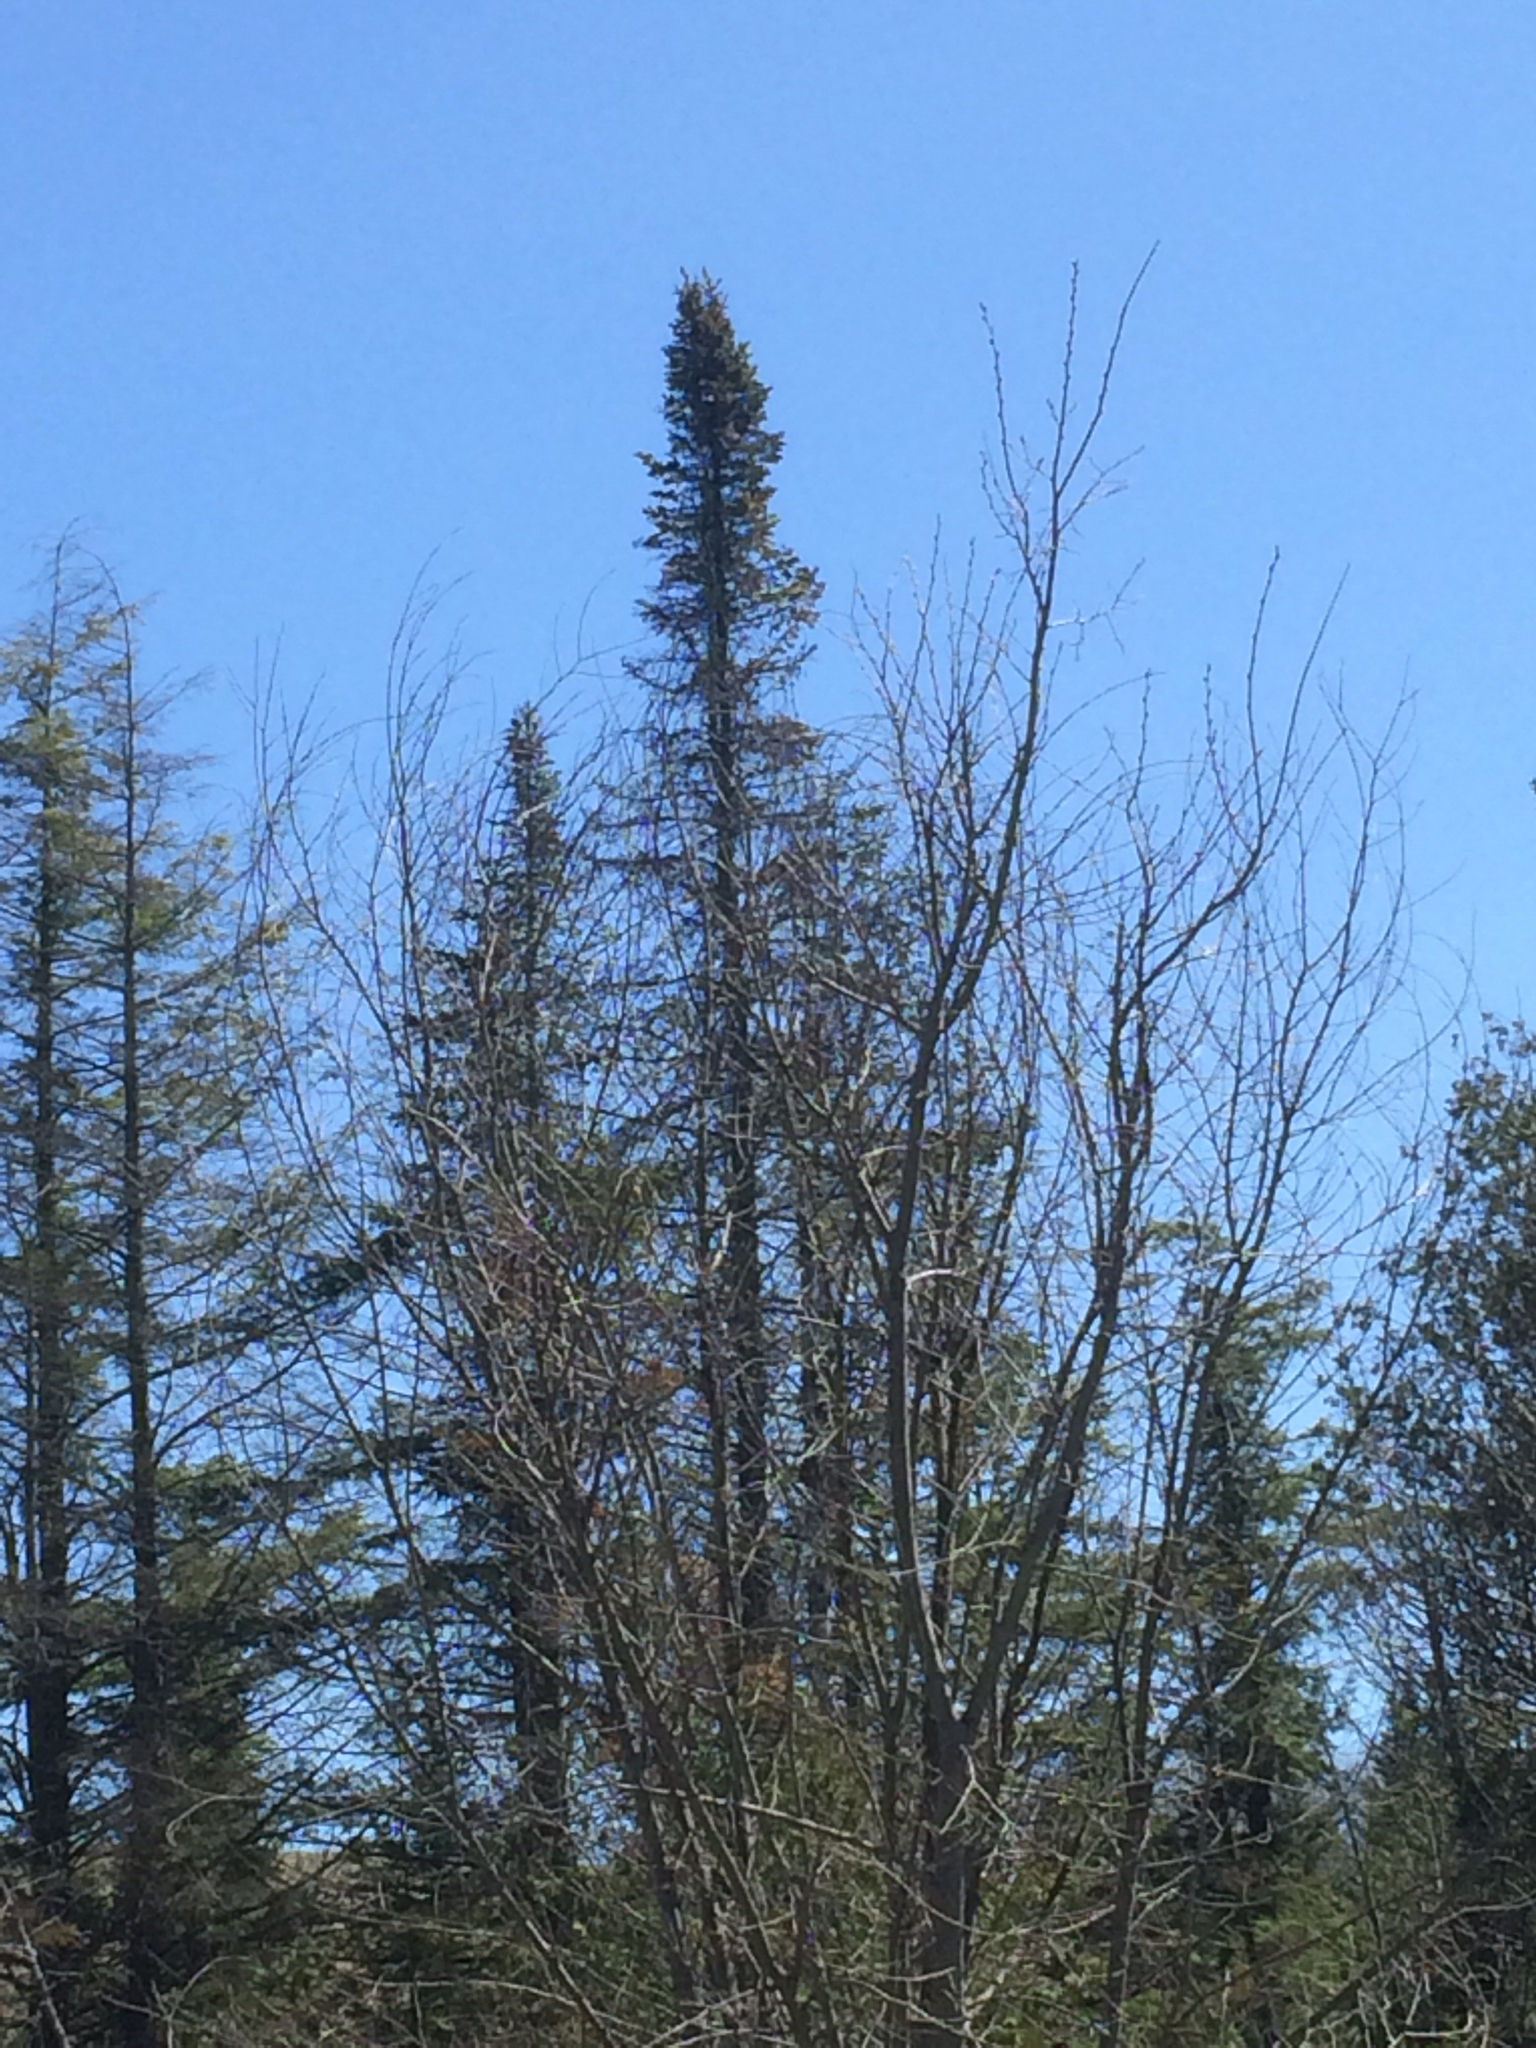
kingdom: Plantae
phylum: Tracheophyta
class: Pinopsida
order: Pinales
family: Pinaceae
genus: Abies
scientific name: Abies balsamea
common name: Balsam fir
